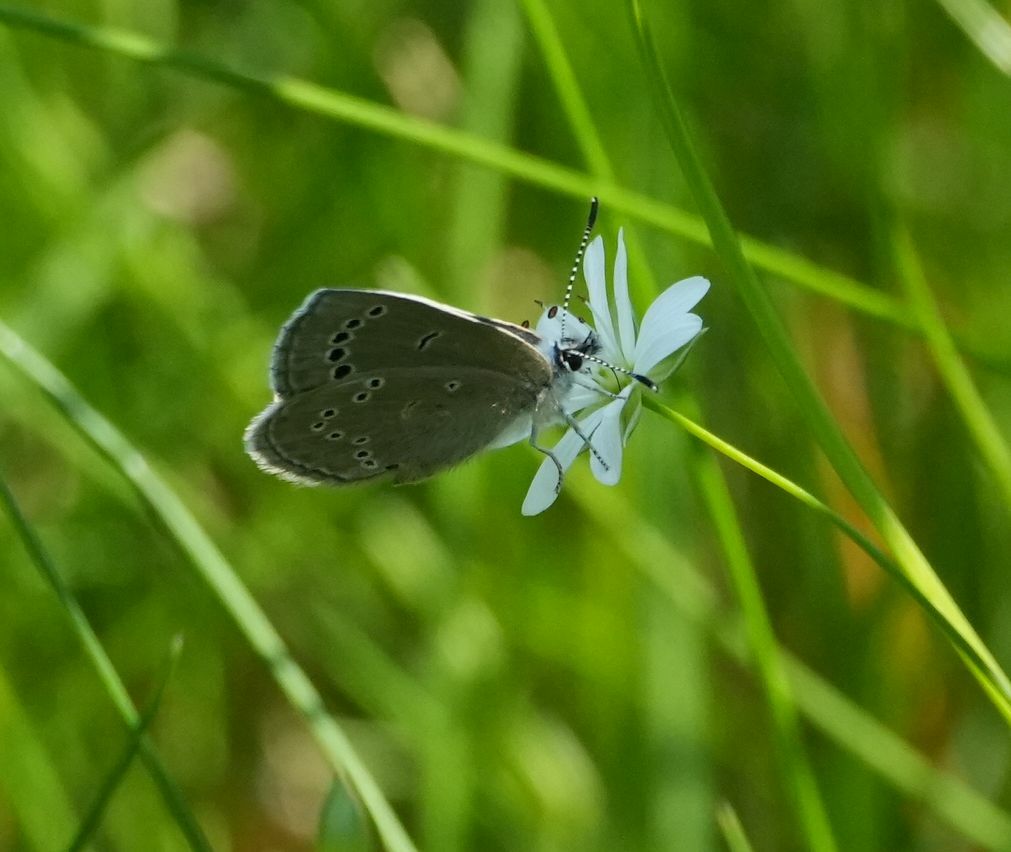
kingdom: Animalia
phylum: Arthropoda
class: Insecta
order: Lepidoptera
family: Lycaenidae
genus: Glaucopsyche
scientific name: Glaucopsyche lygdamus
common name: Silvery blue
